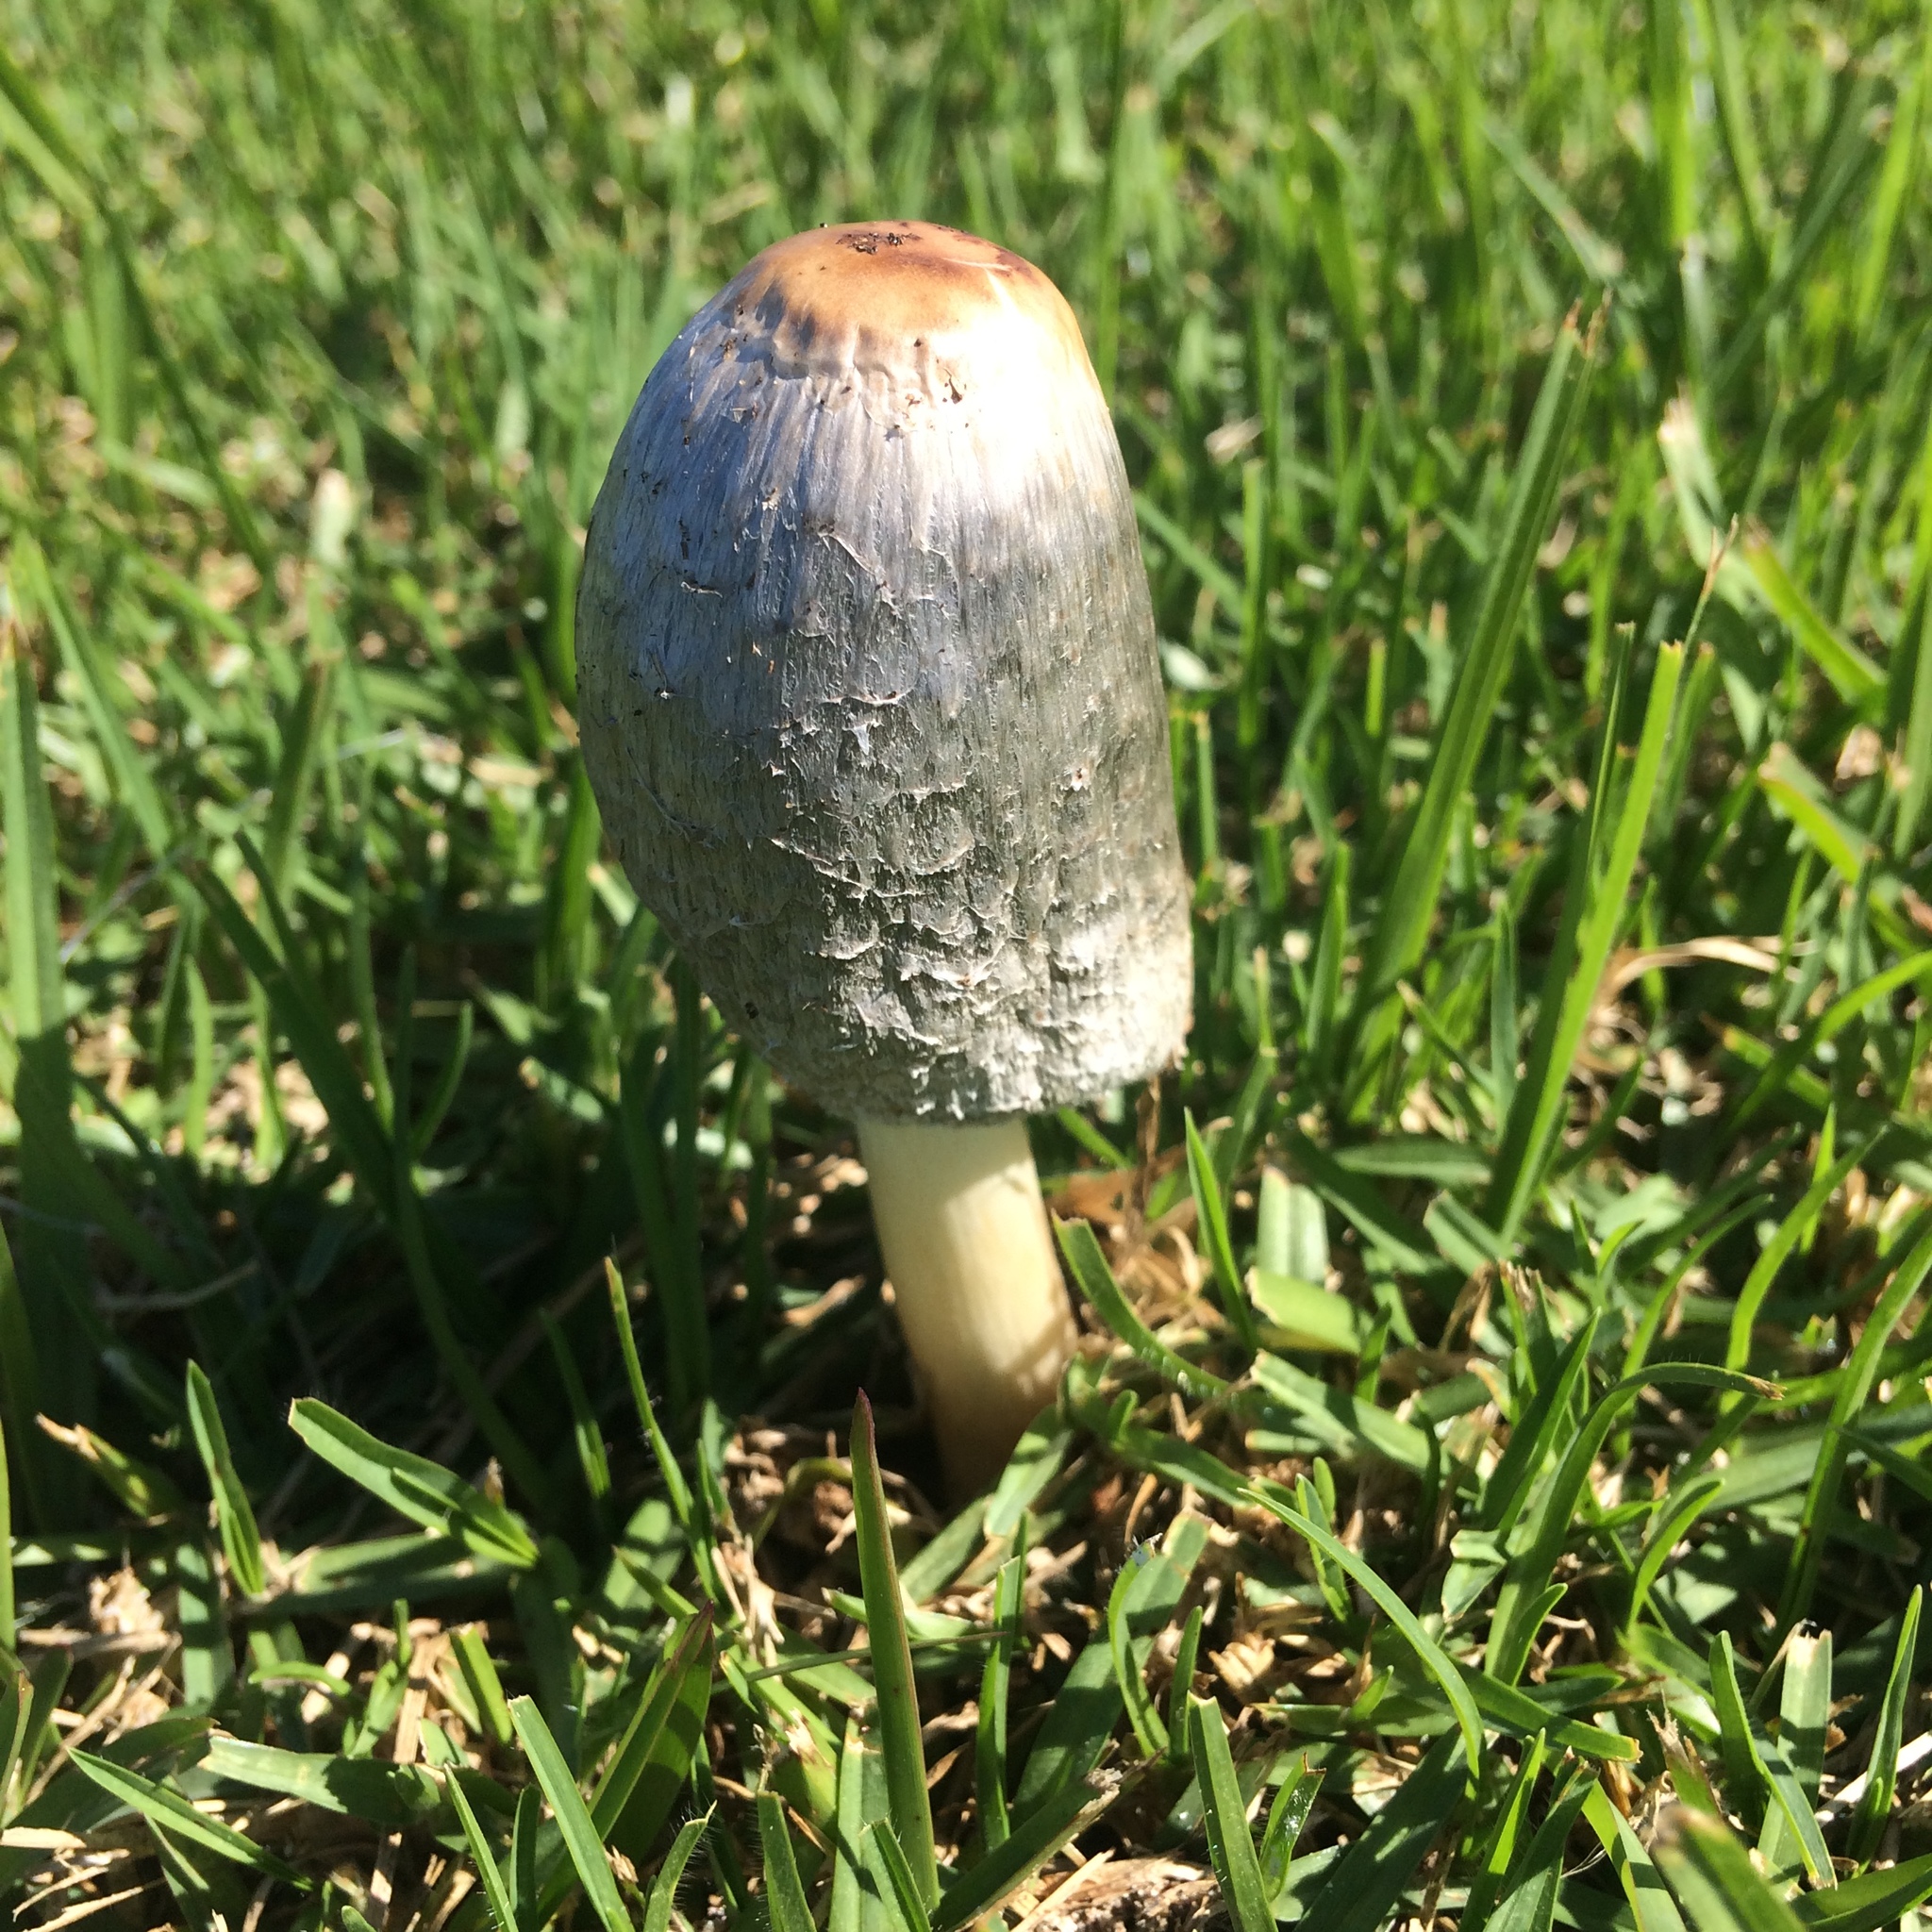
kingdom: Fungi
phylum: Basidiomycota
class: Agaricomycetes
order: Agaricales
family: Agaricaceae
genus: Coprinus
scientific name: Coprinus comatus
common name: Lawyer's wig
